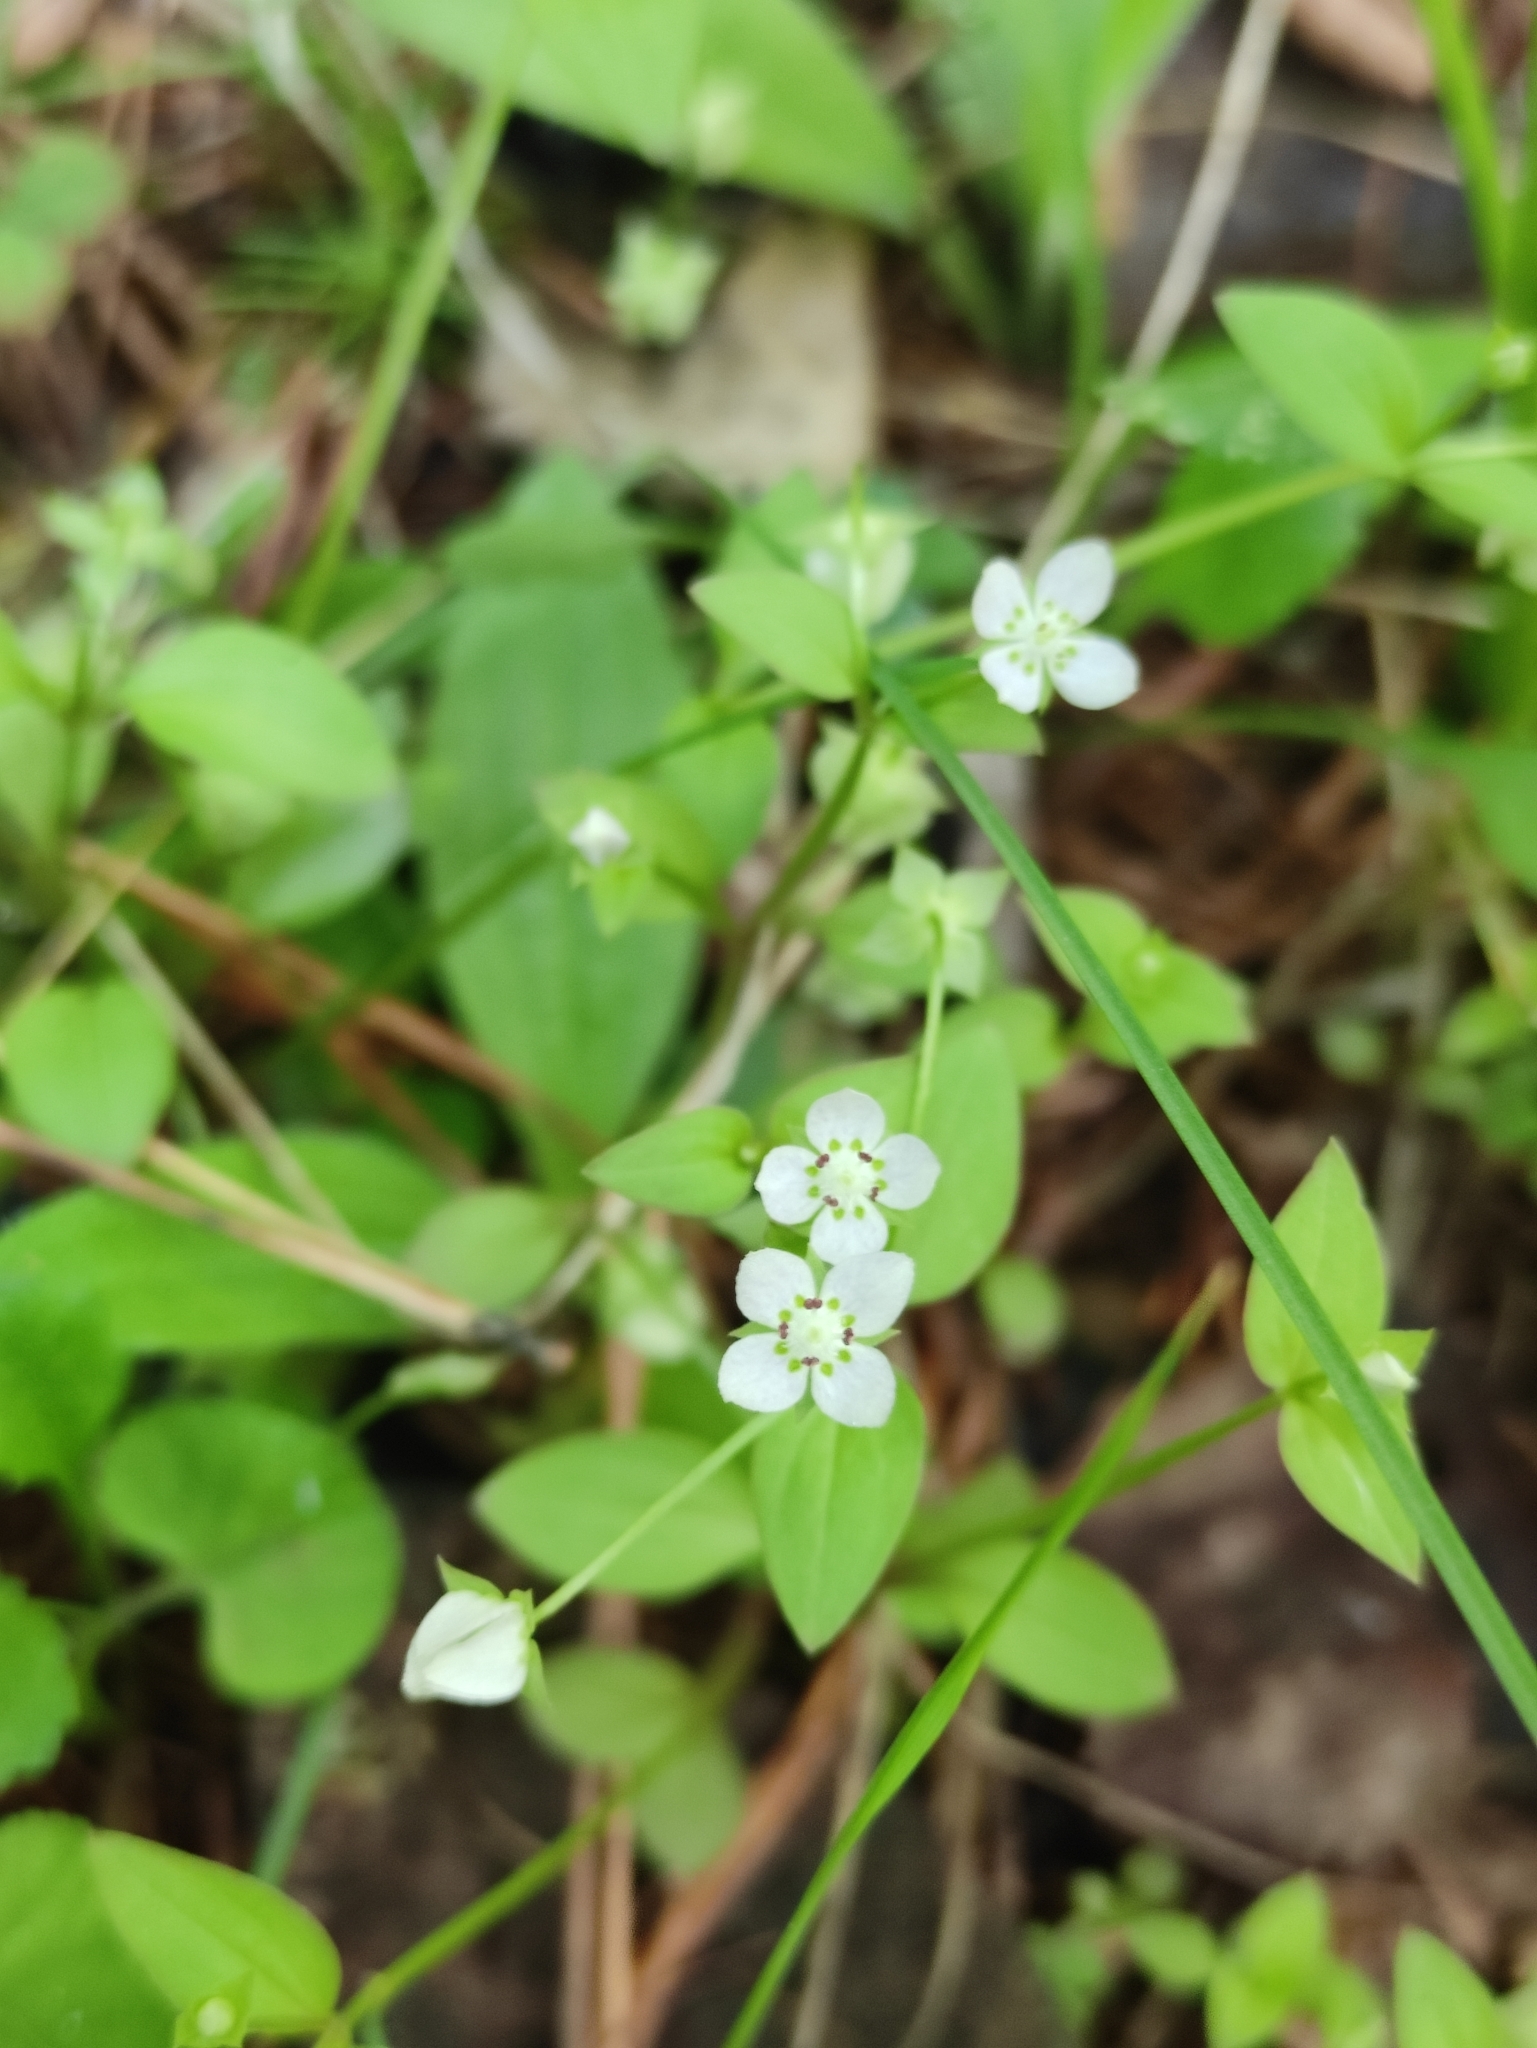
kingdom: Plantae
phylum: Tracheophyta
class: Magnoliopsida
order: Gentianales
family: Gentianaceae
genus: Swertia
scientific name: Swertia dichotoma
